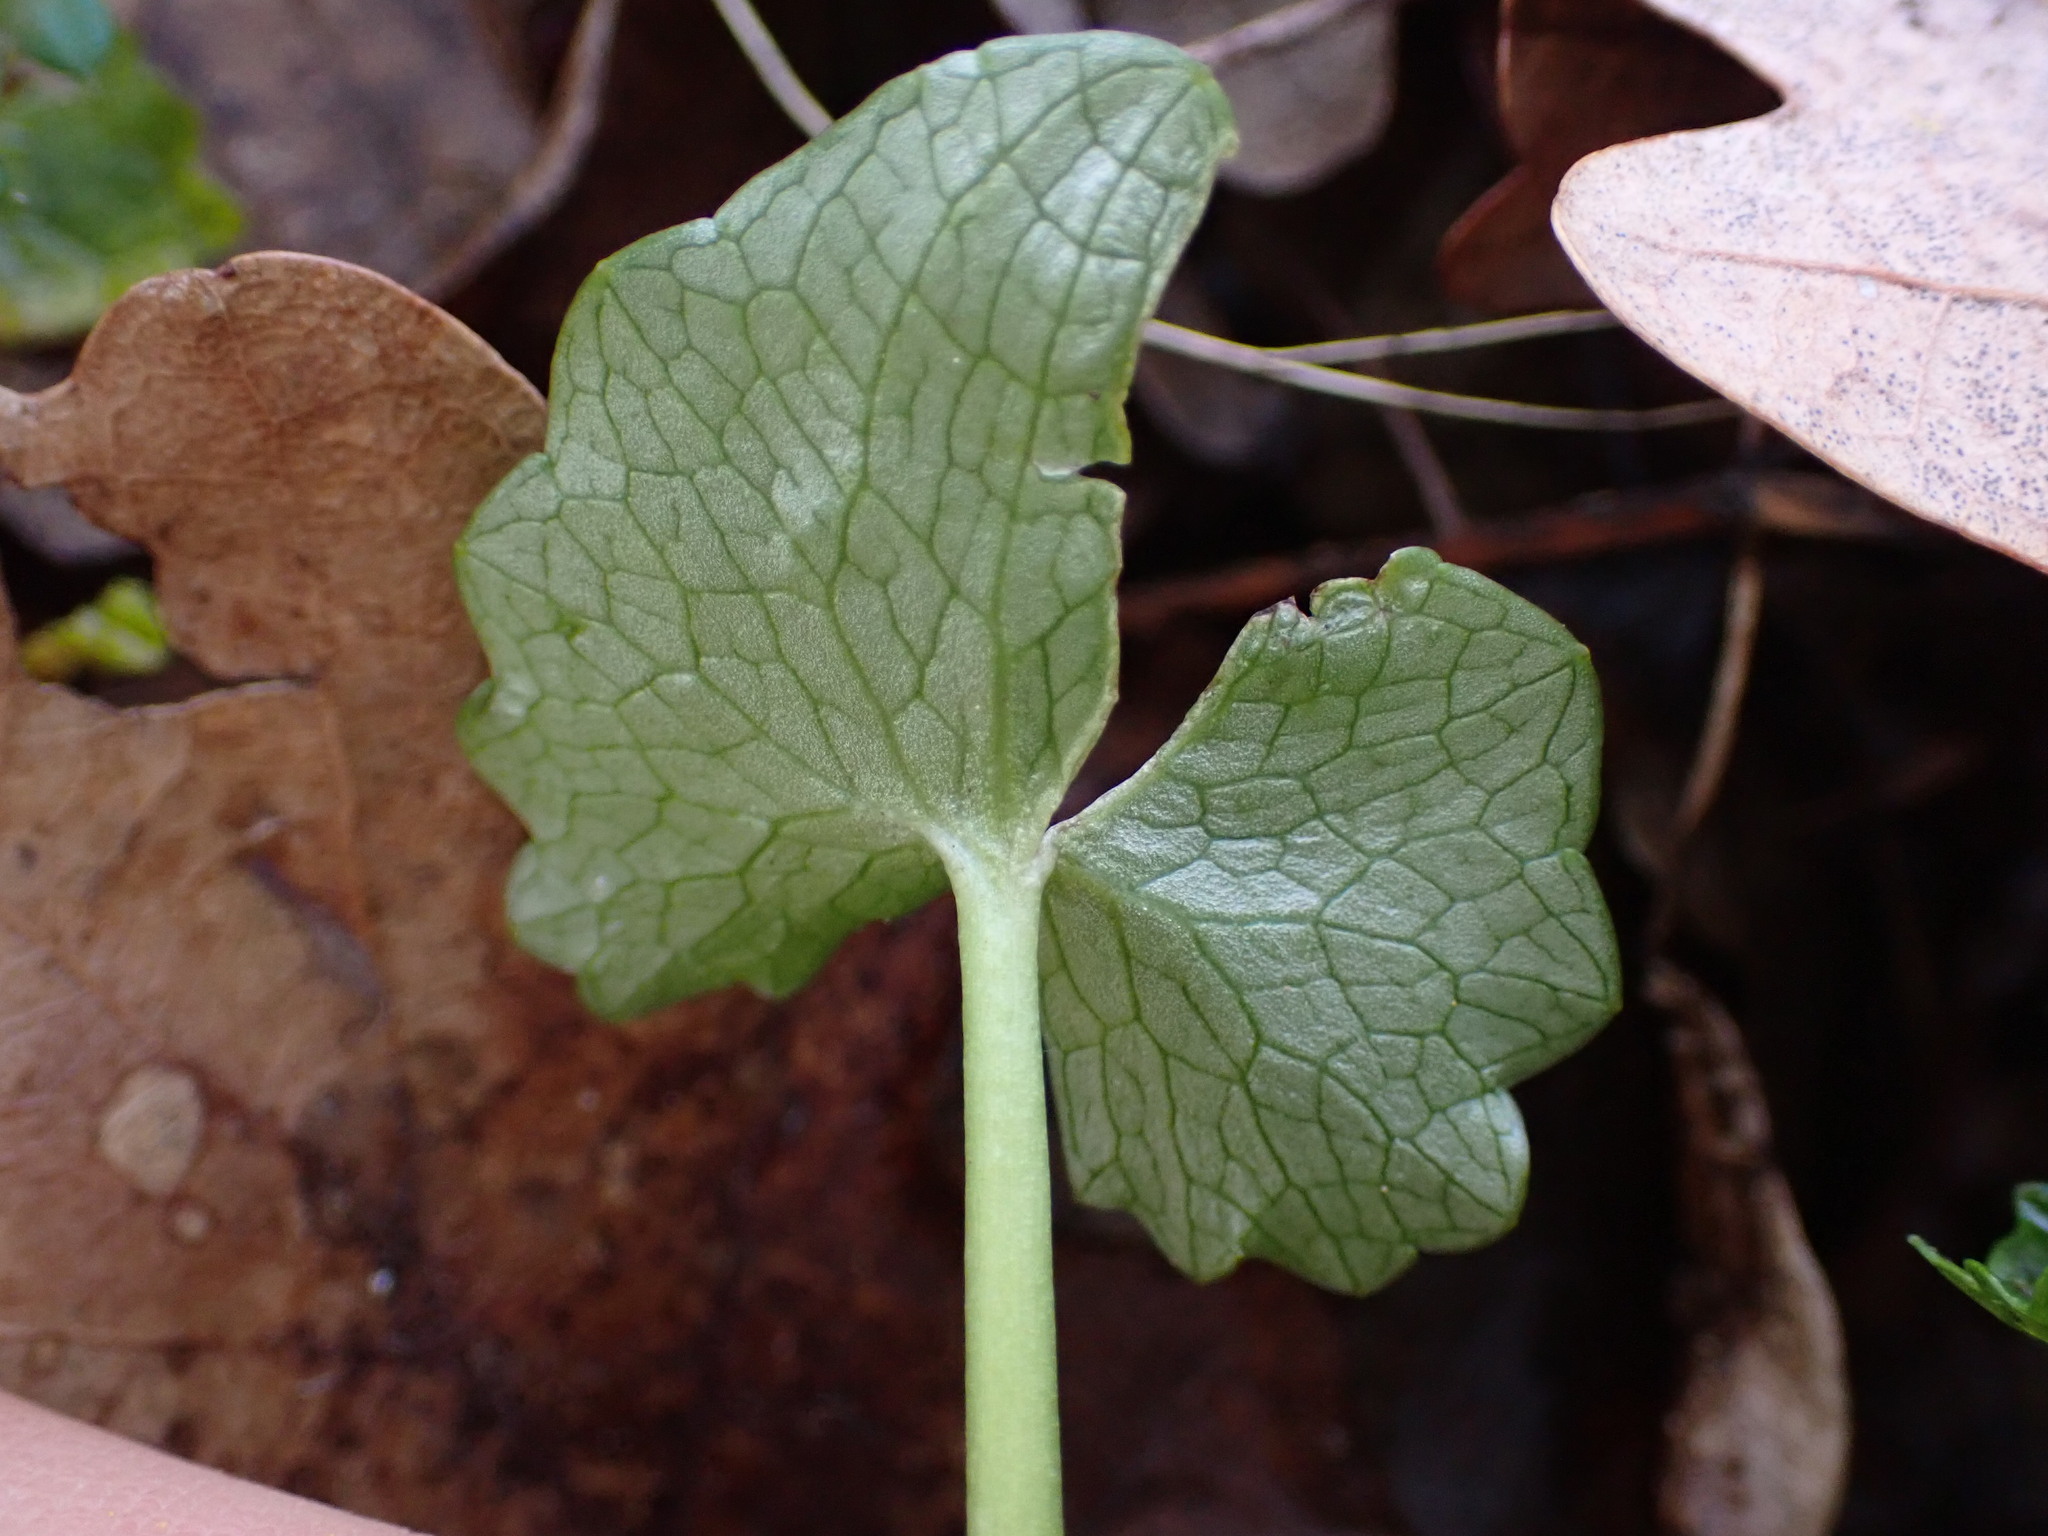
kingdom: Plantae
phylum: Tracheophyta
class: Magnoliopsida
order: Ranunculales
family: Ranunculaceae
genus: Ficaria
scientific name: Ficaria verna
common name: Lesser celandine
